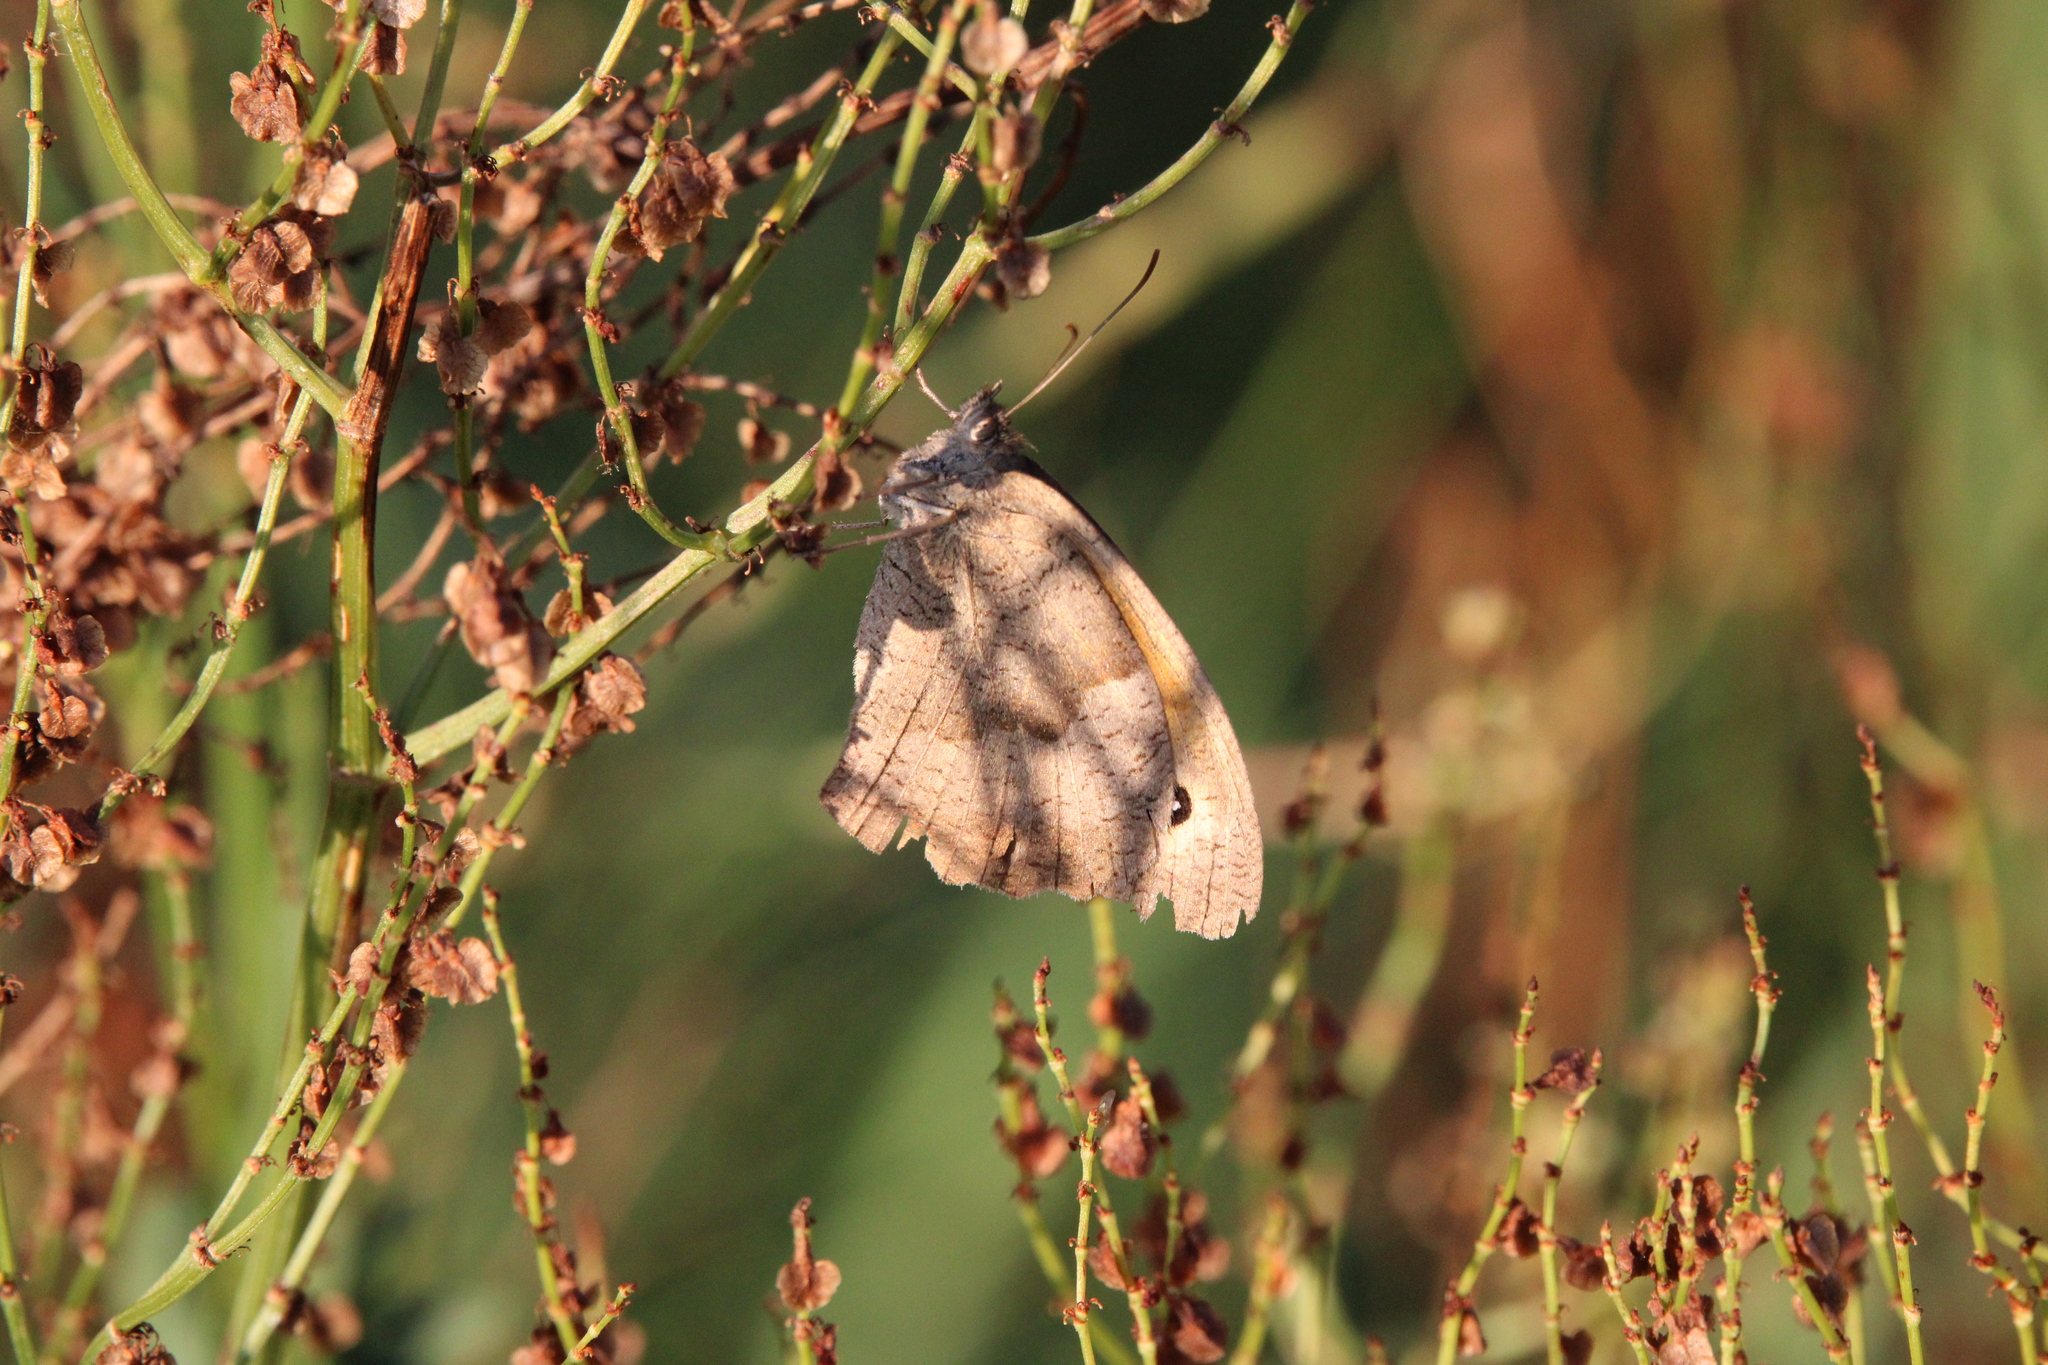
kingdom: Animalia
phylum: Arthropoda
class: Insecta
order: Lepidoptera
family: Nymphalidae
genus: Maniola
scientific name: Maniola jurtina
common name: Meadow brown
